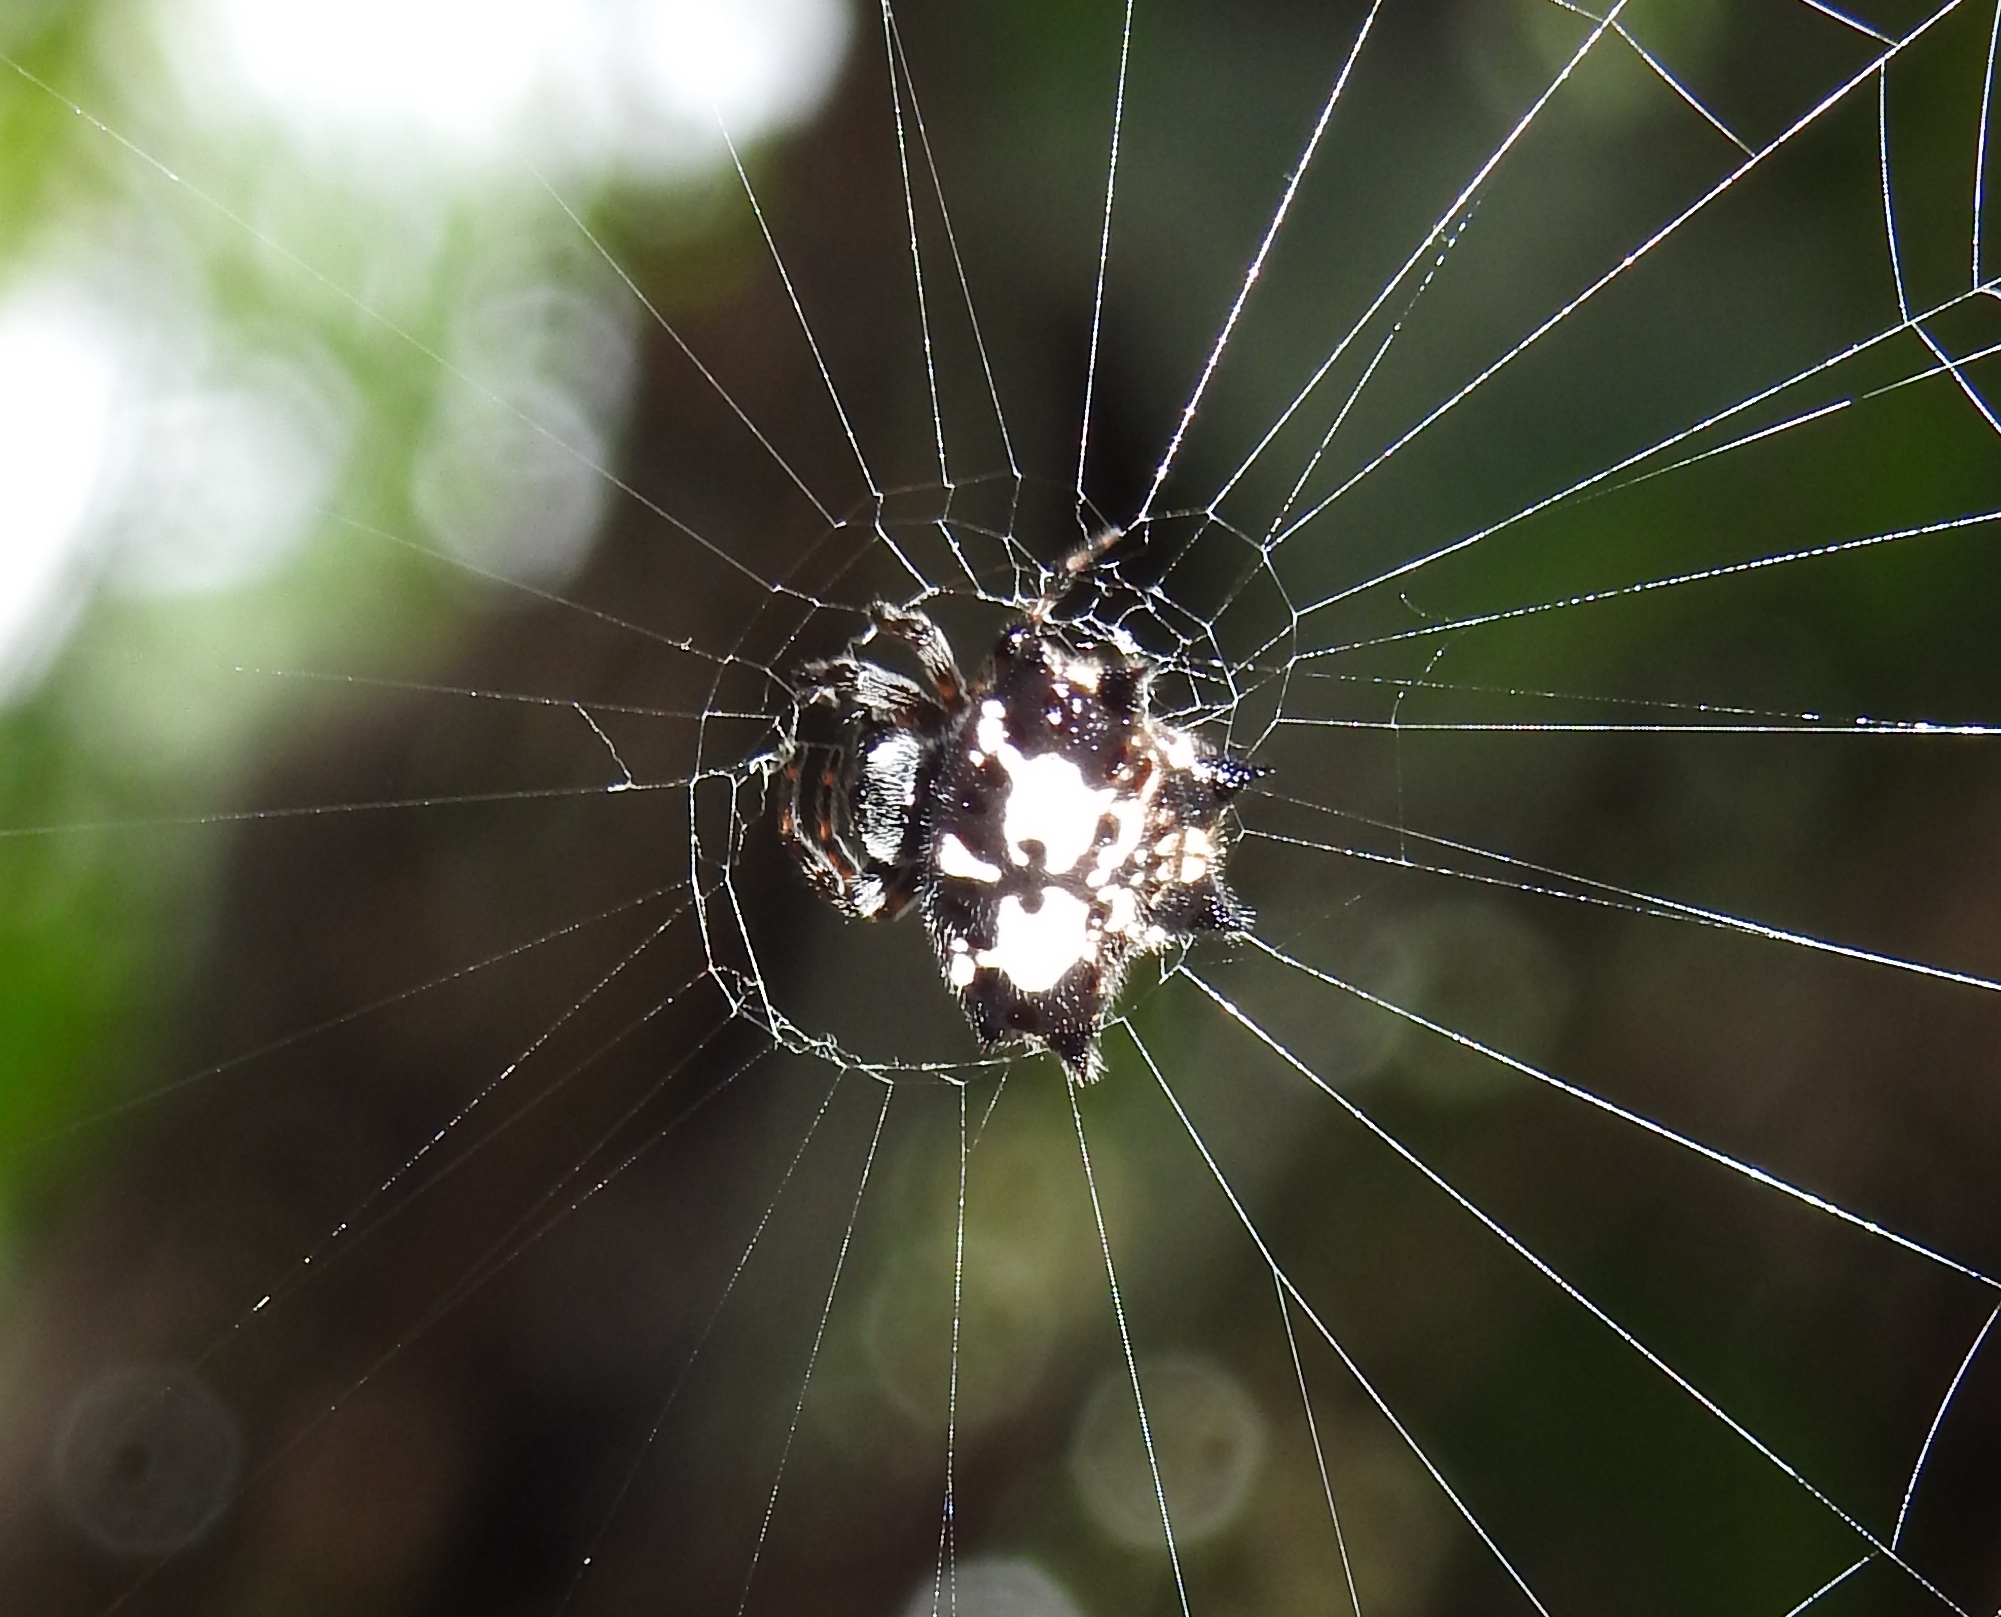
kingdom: Animalia
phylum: Arthropoda
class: Arachnida
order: Araneae
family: Araneidae
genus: Gasteracantha
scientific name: Gasteracantha kuhli
